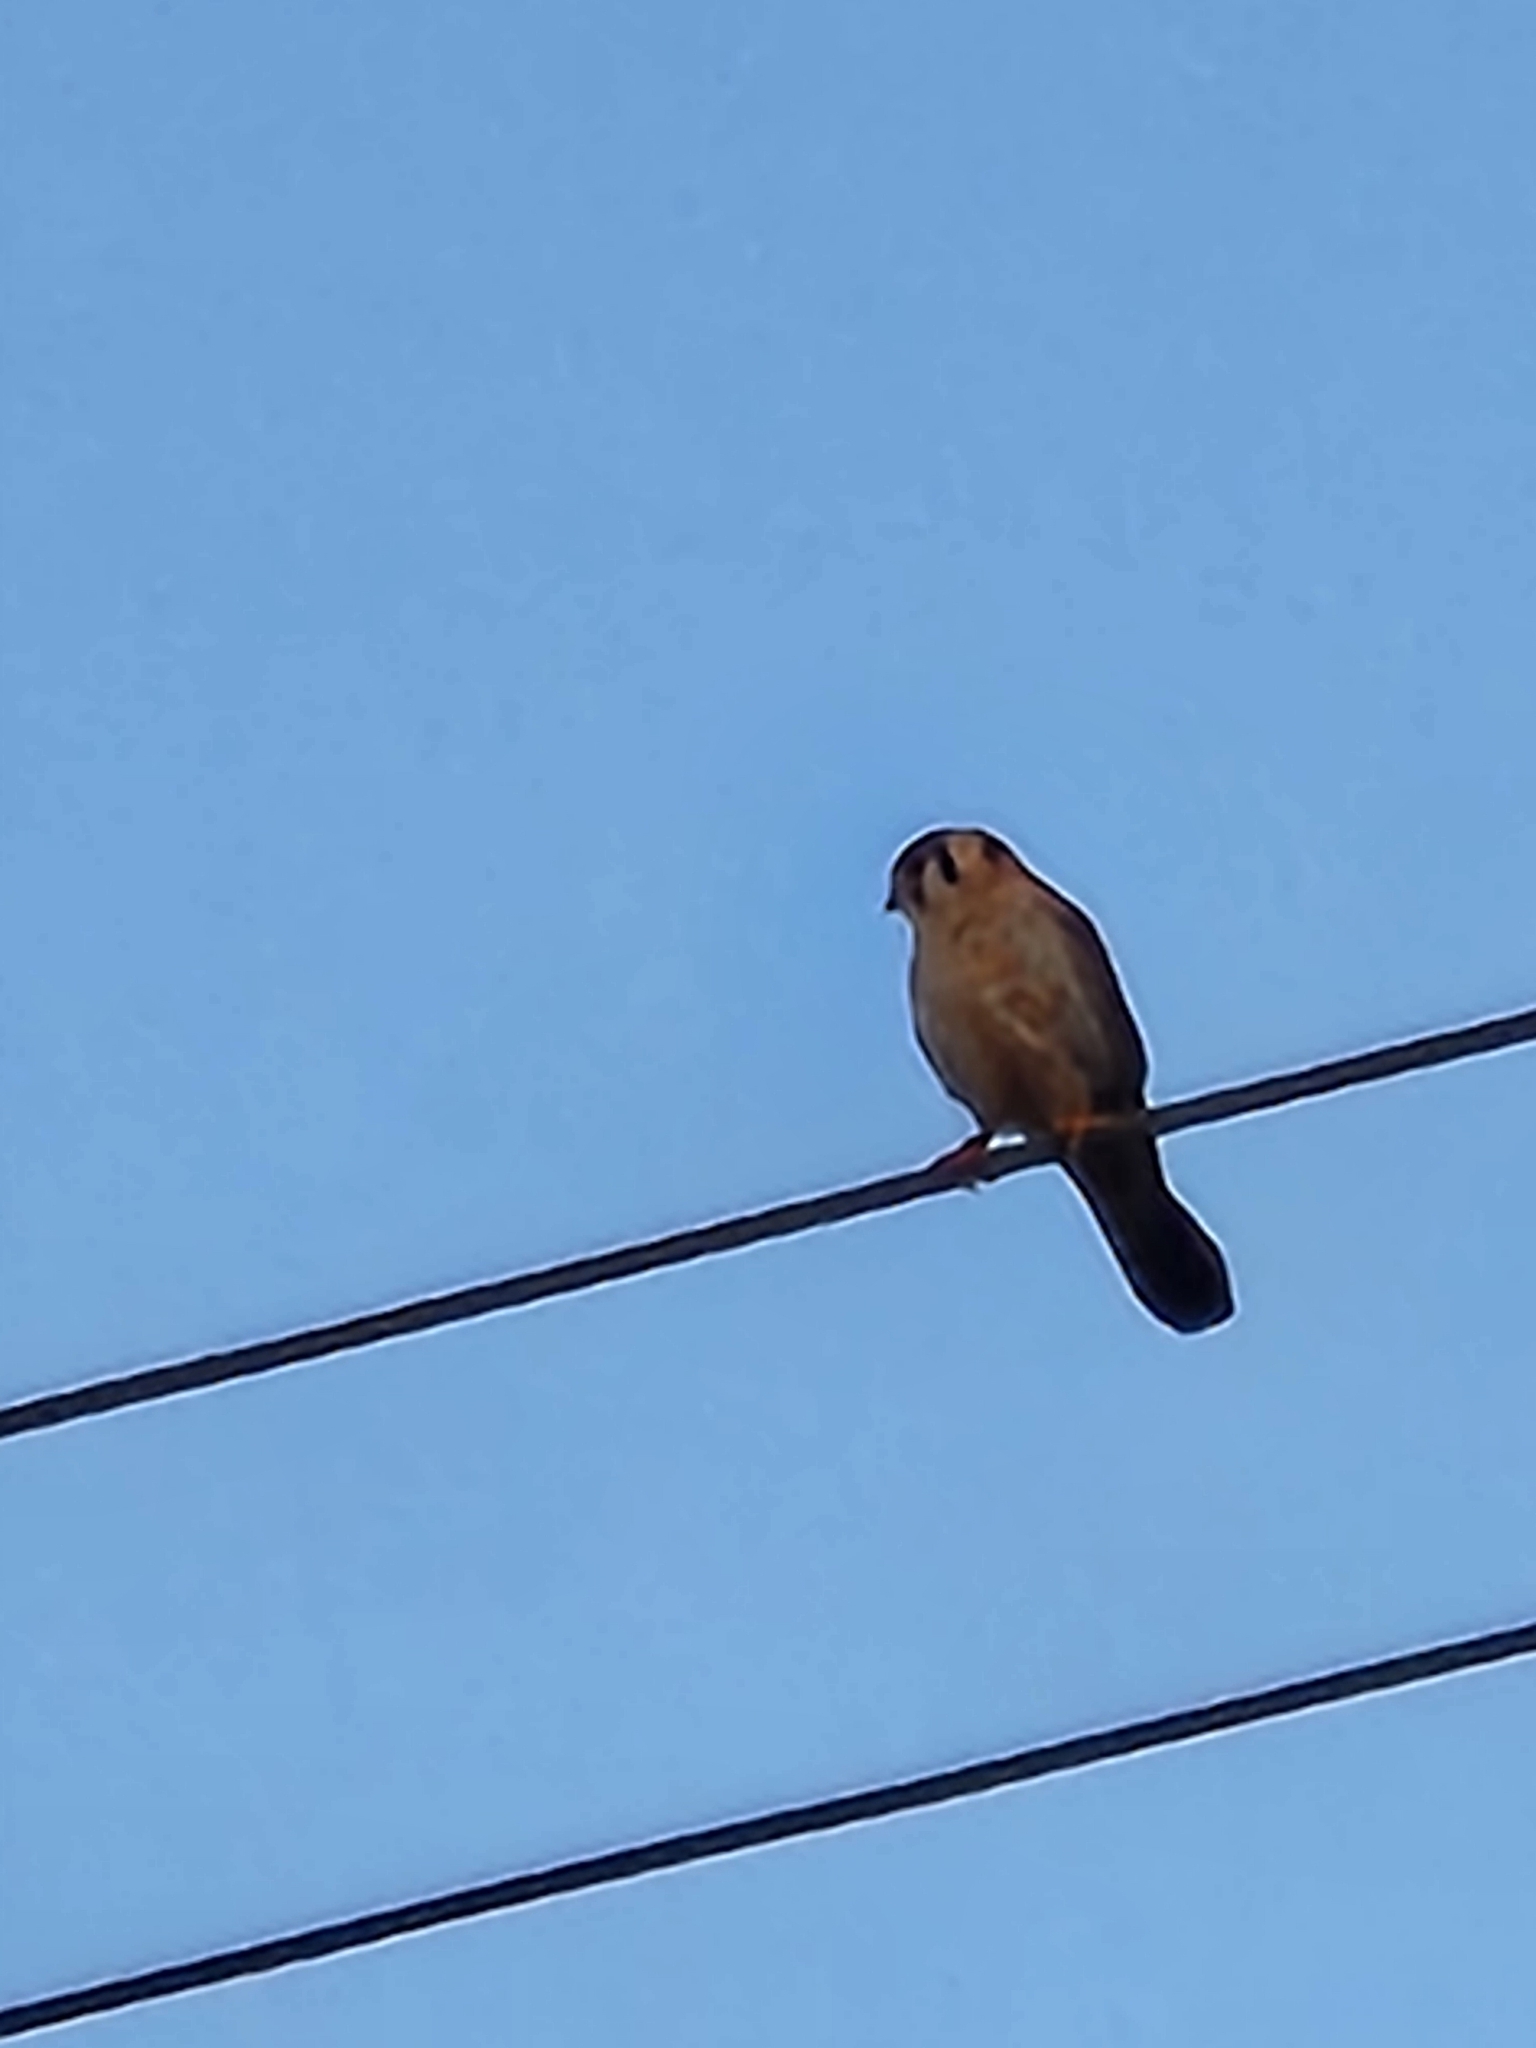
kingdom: Animalia
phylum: Chordata
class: Aves
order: Falconiformes
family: Falconidae
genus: Falco
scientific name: Falco sparverius
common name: American kestrel
